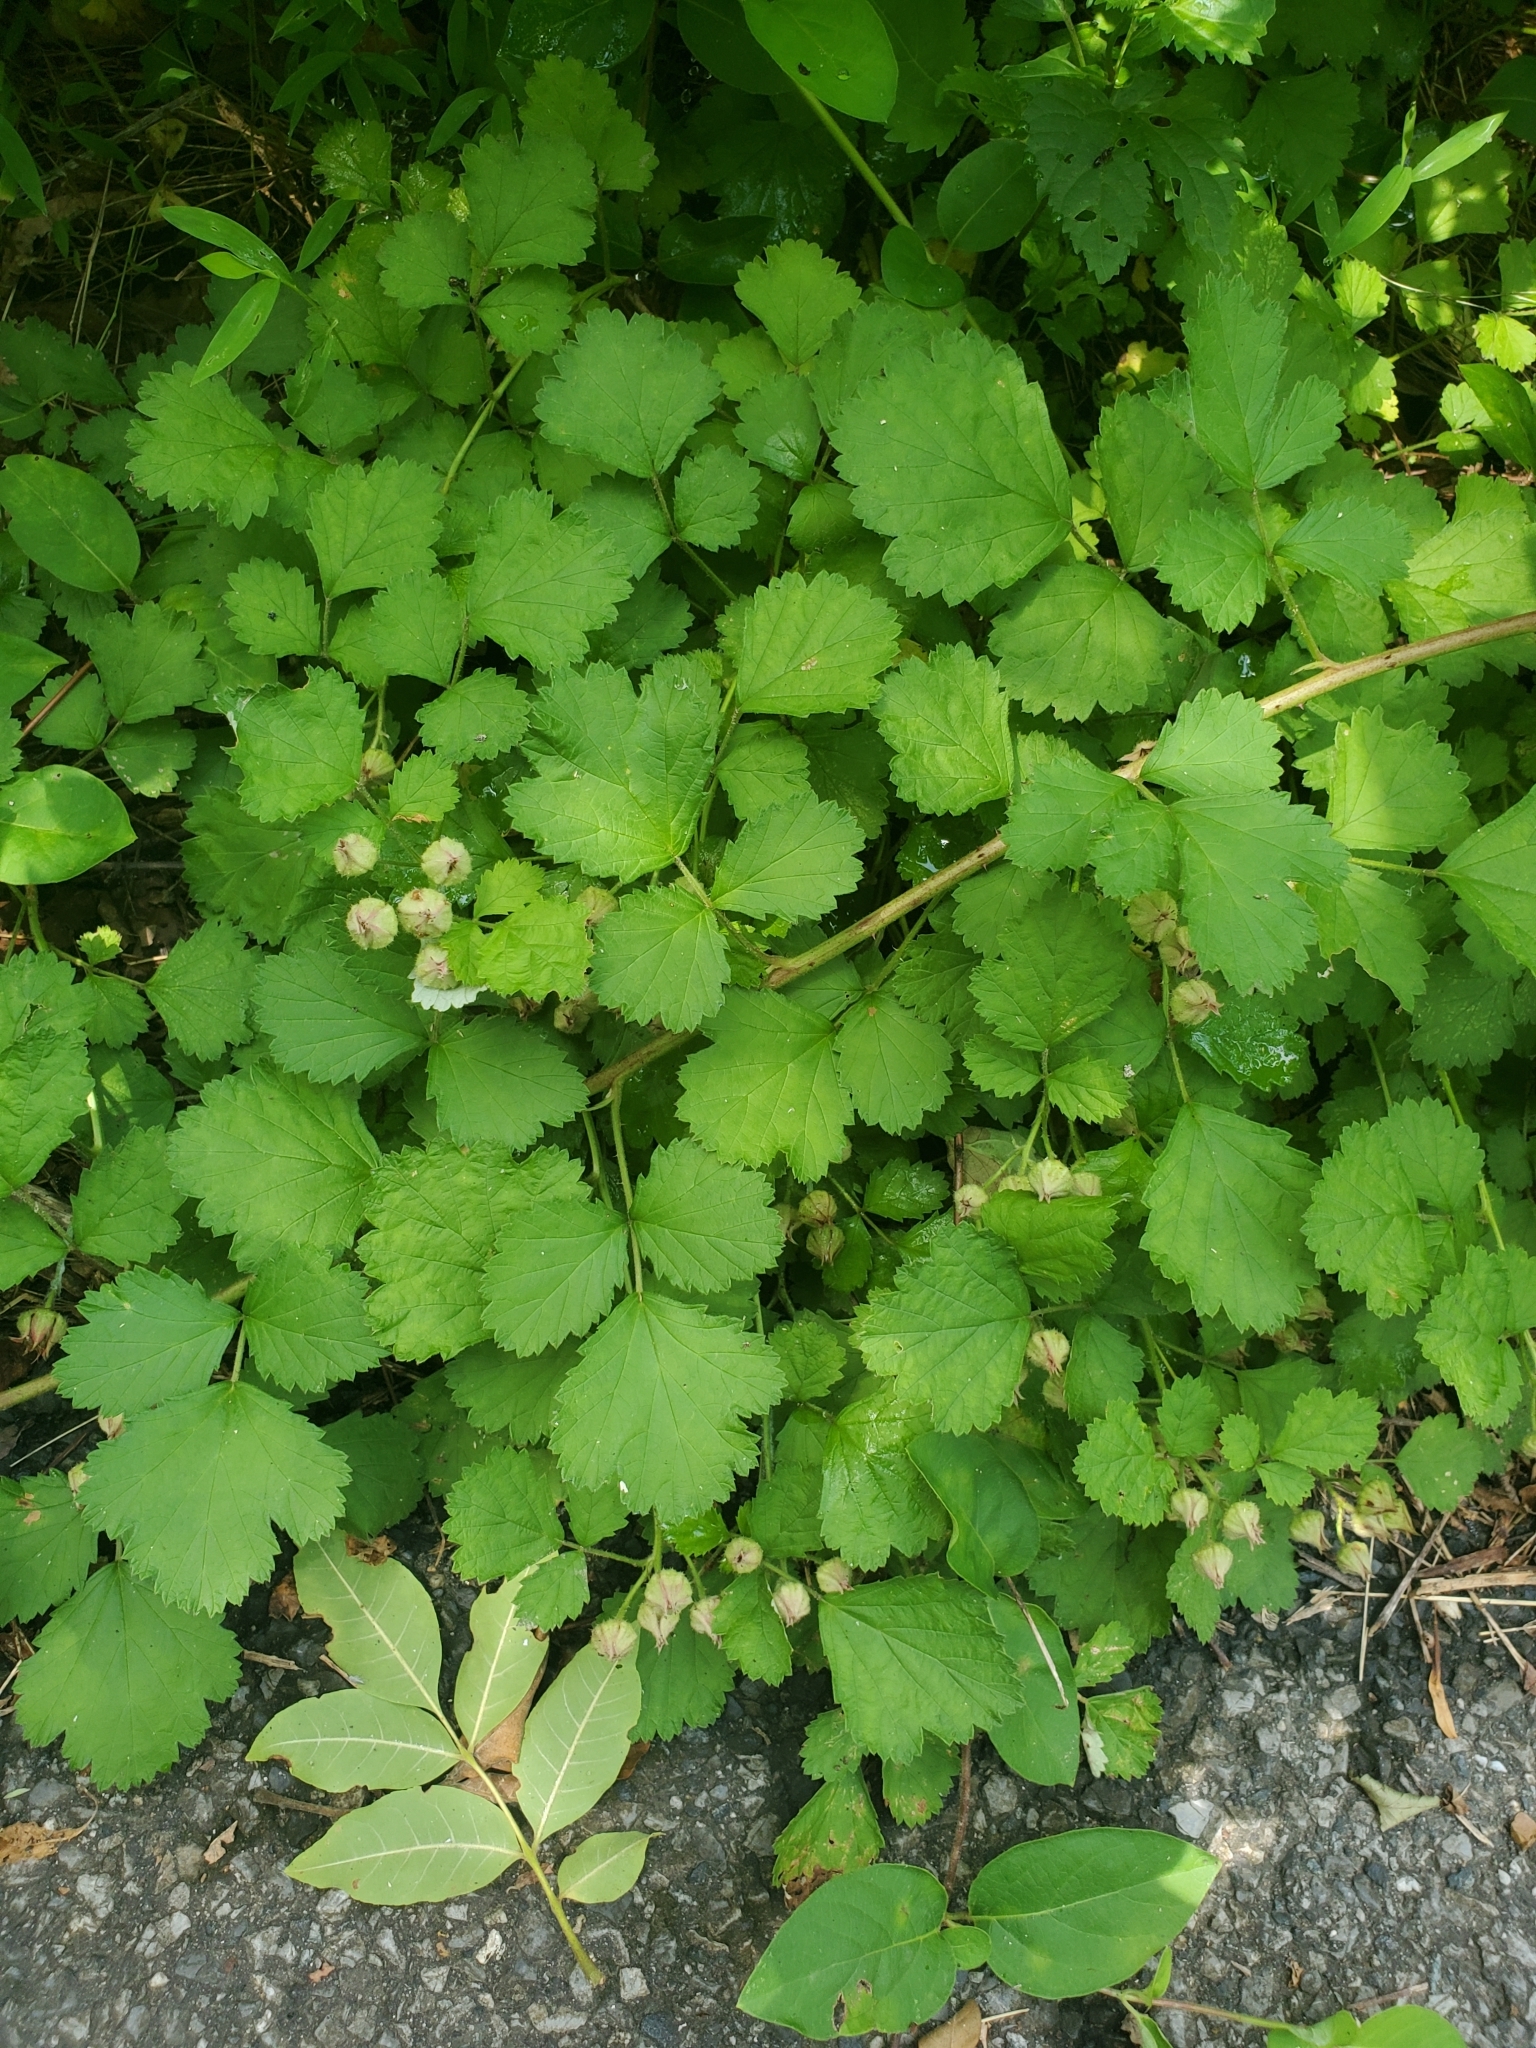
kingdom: Plantae
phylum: Tracheophyta
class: Magnoliopsida
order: Rosales
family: Rosaceae
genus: Rubus
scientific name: Rubus parvifolius
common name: Threeleaf blackberry
